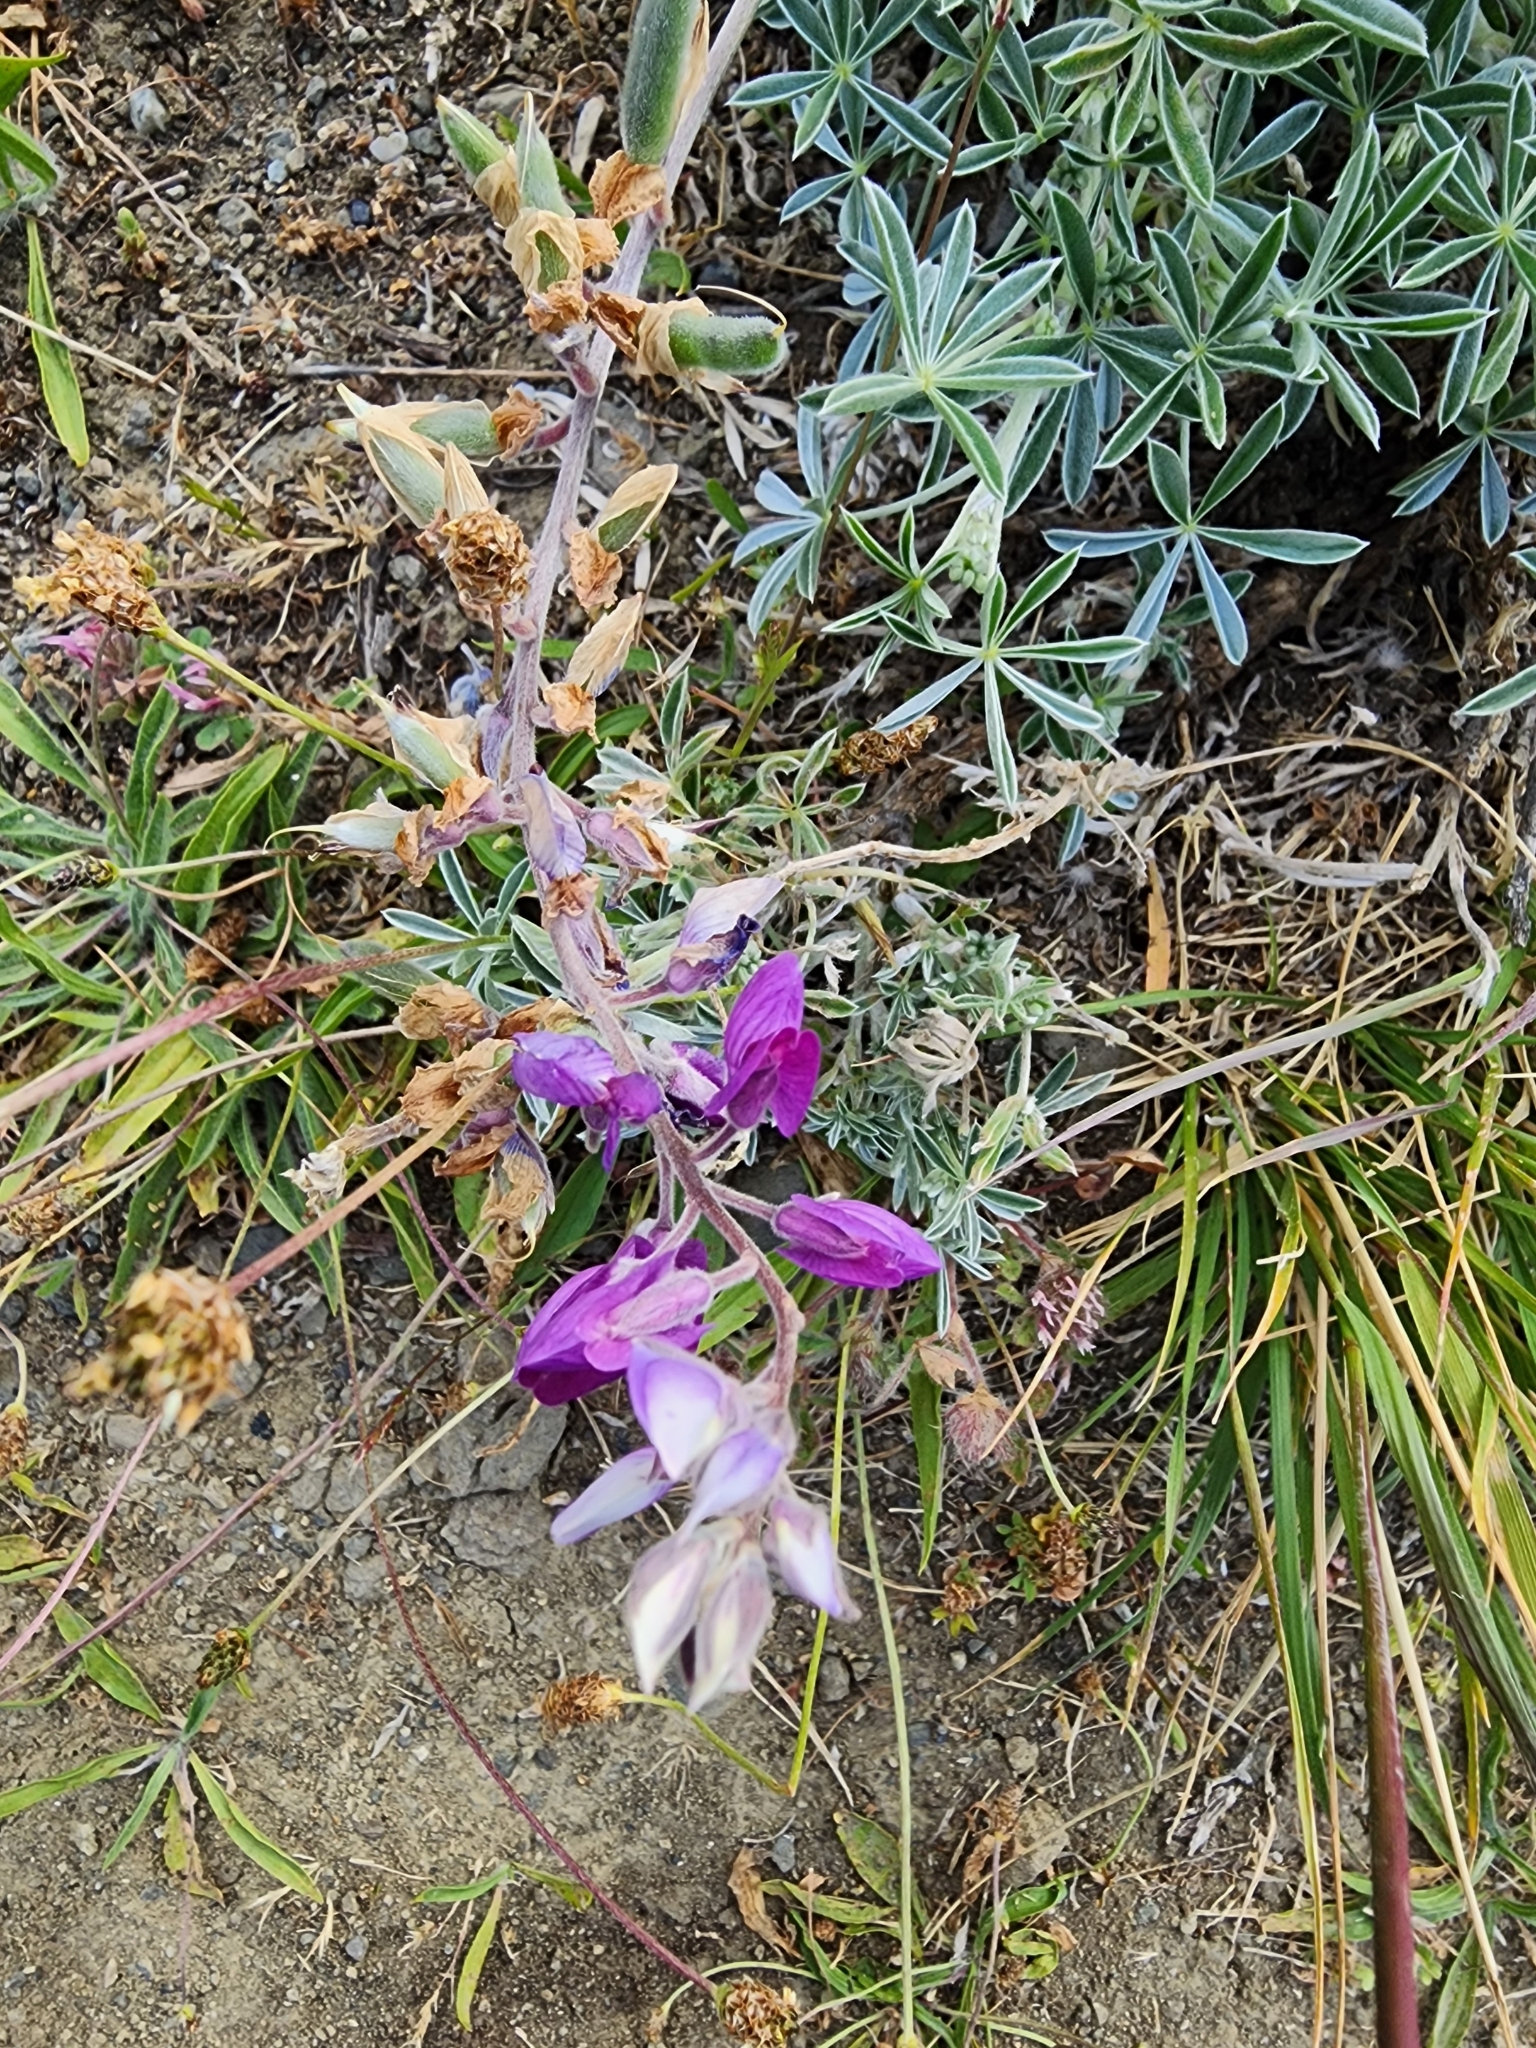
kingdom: Plantae
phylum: Tracheophyta
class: Magnoliopsida
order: Fabales
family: Fabaceae
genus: Lupinus
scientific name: Lupinus albifrons
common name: Foothill lupine
